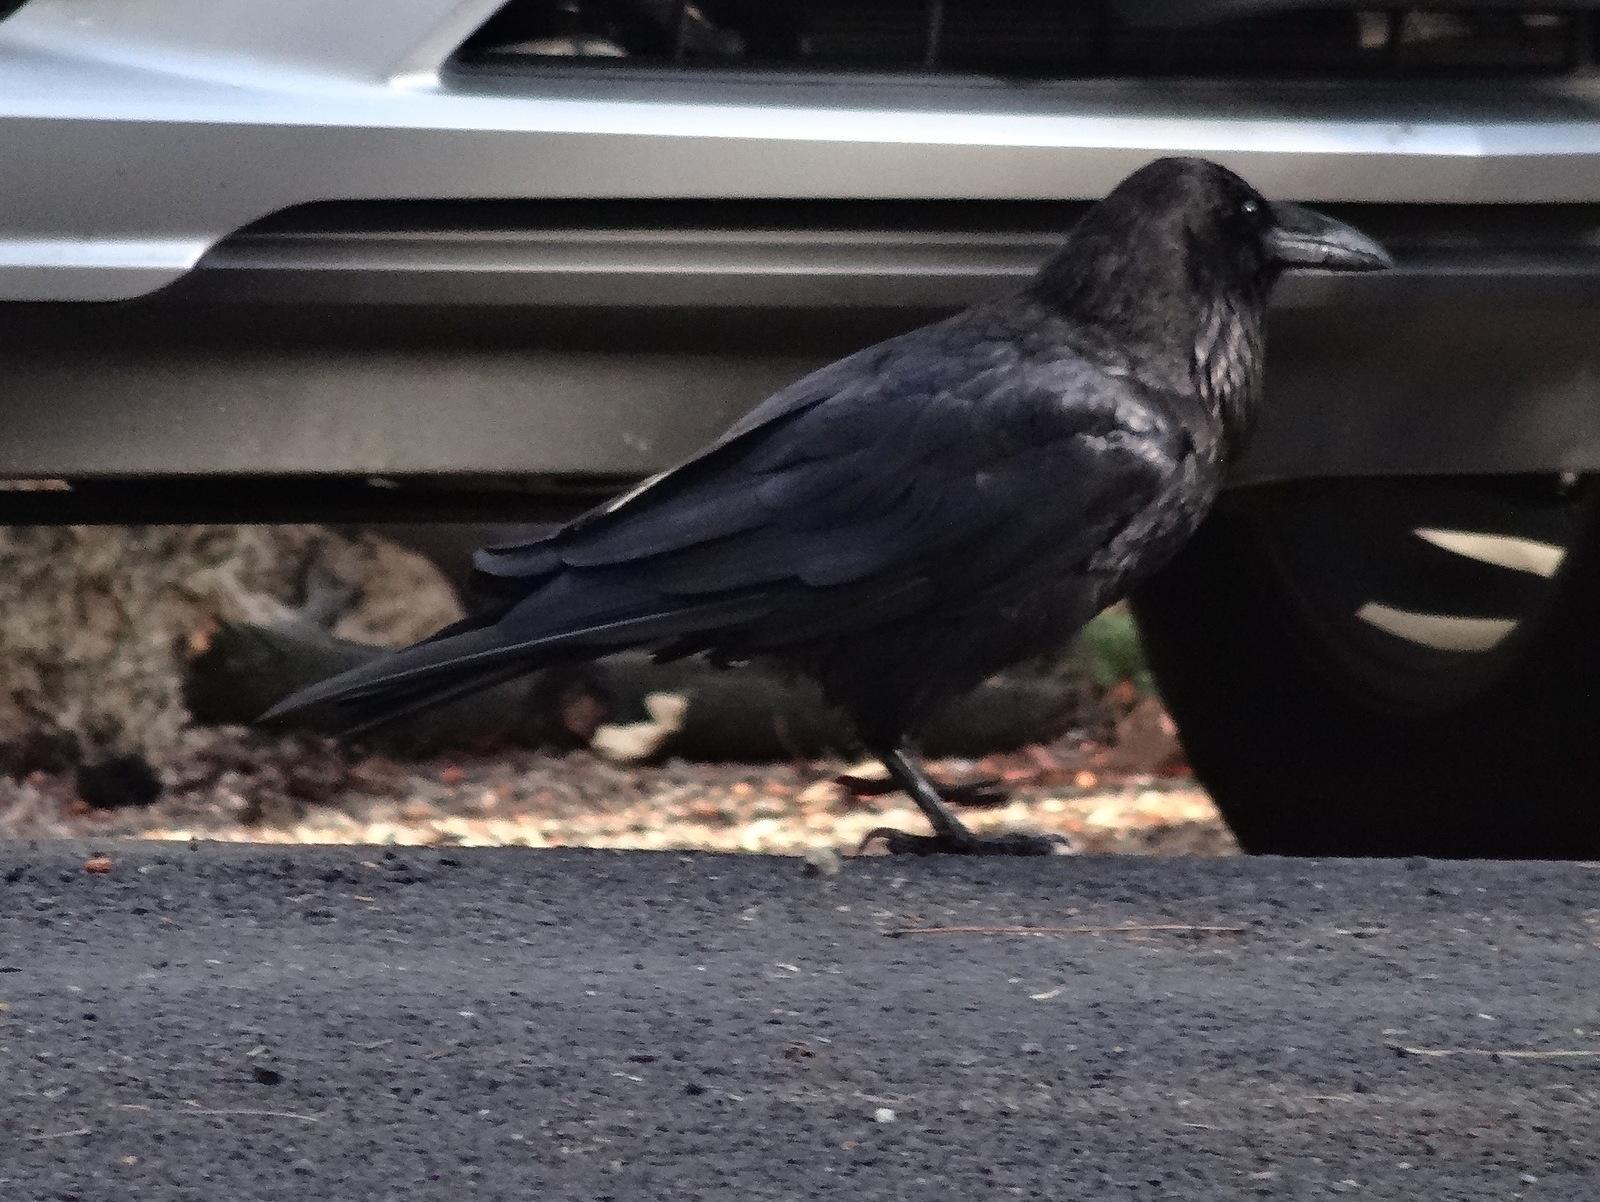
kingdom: Animalia
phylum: Chordata
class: Aves
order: Passeriformes
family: Corvidae
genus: Corvus
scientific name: Corvus corax
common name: Common raven
